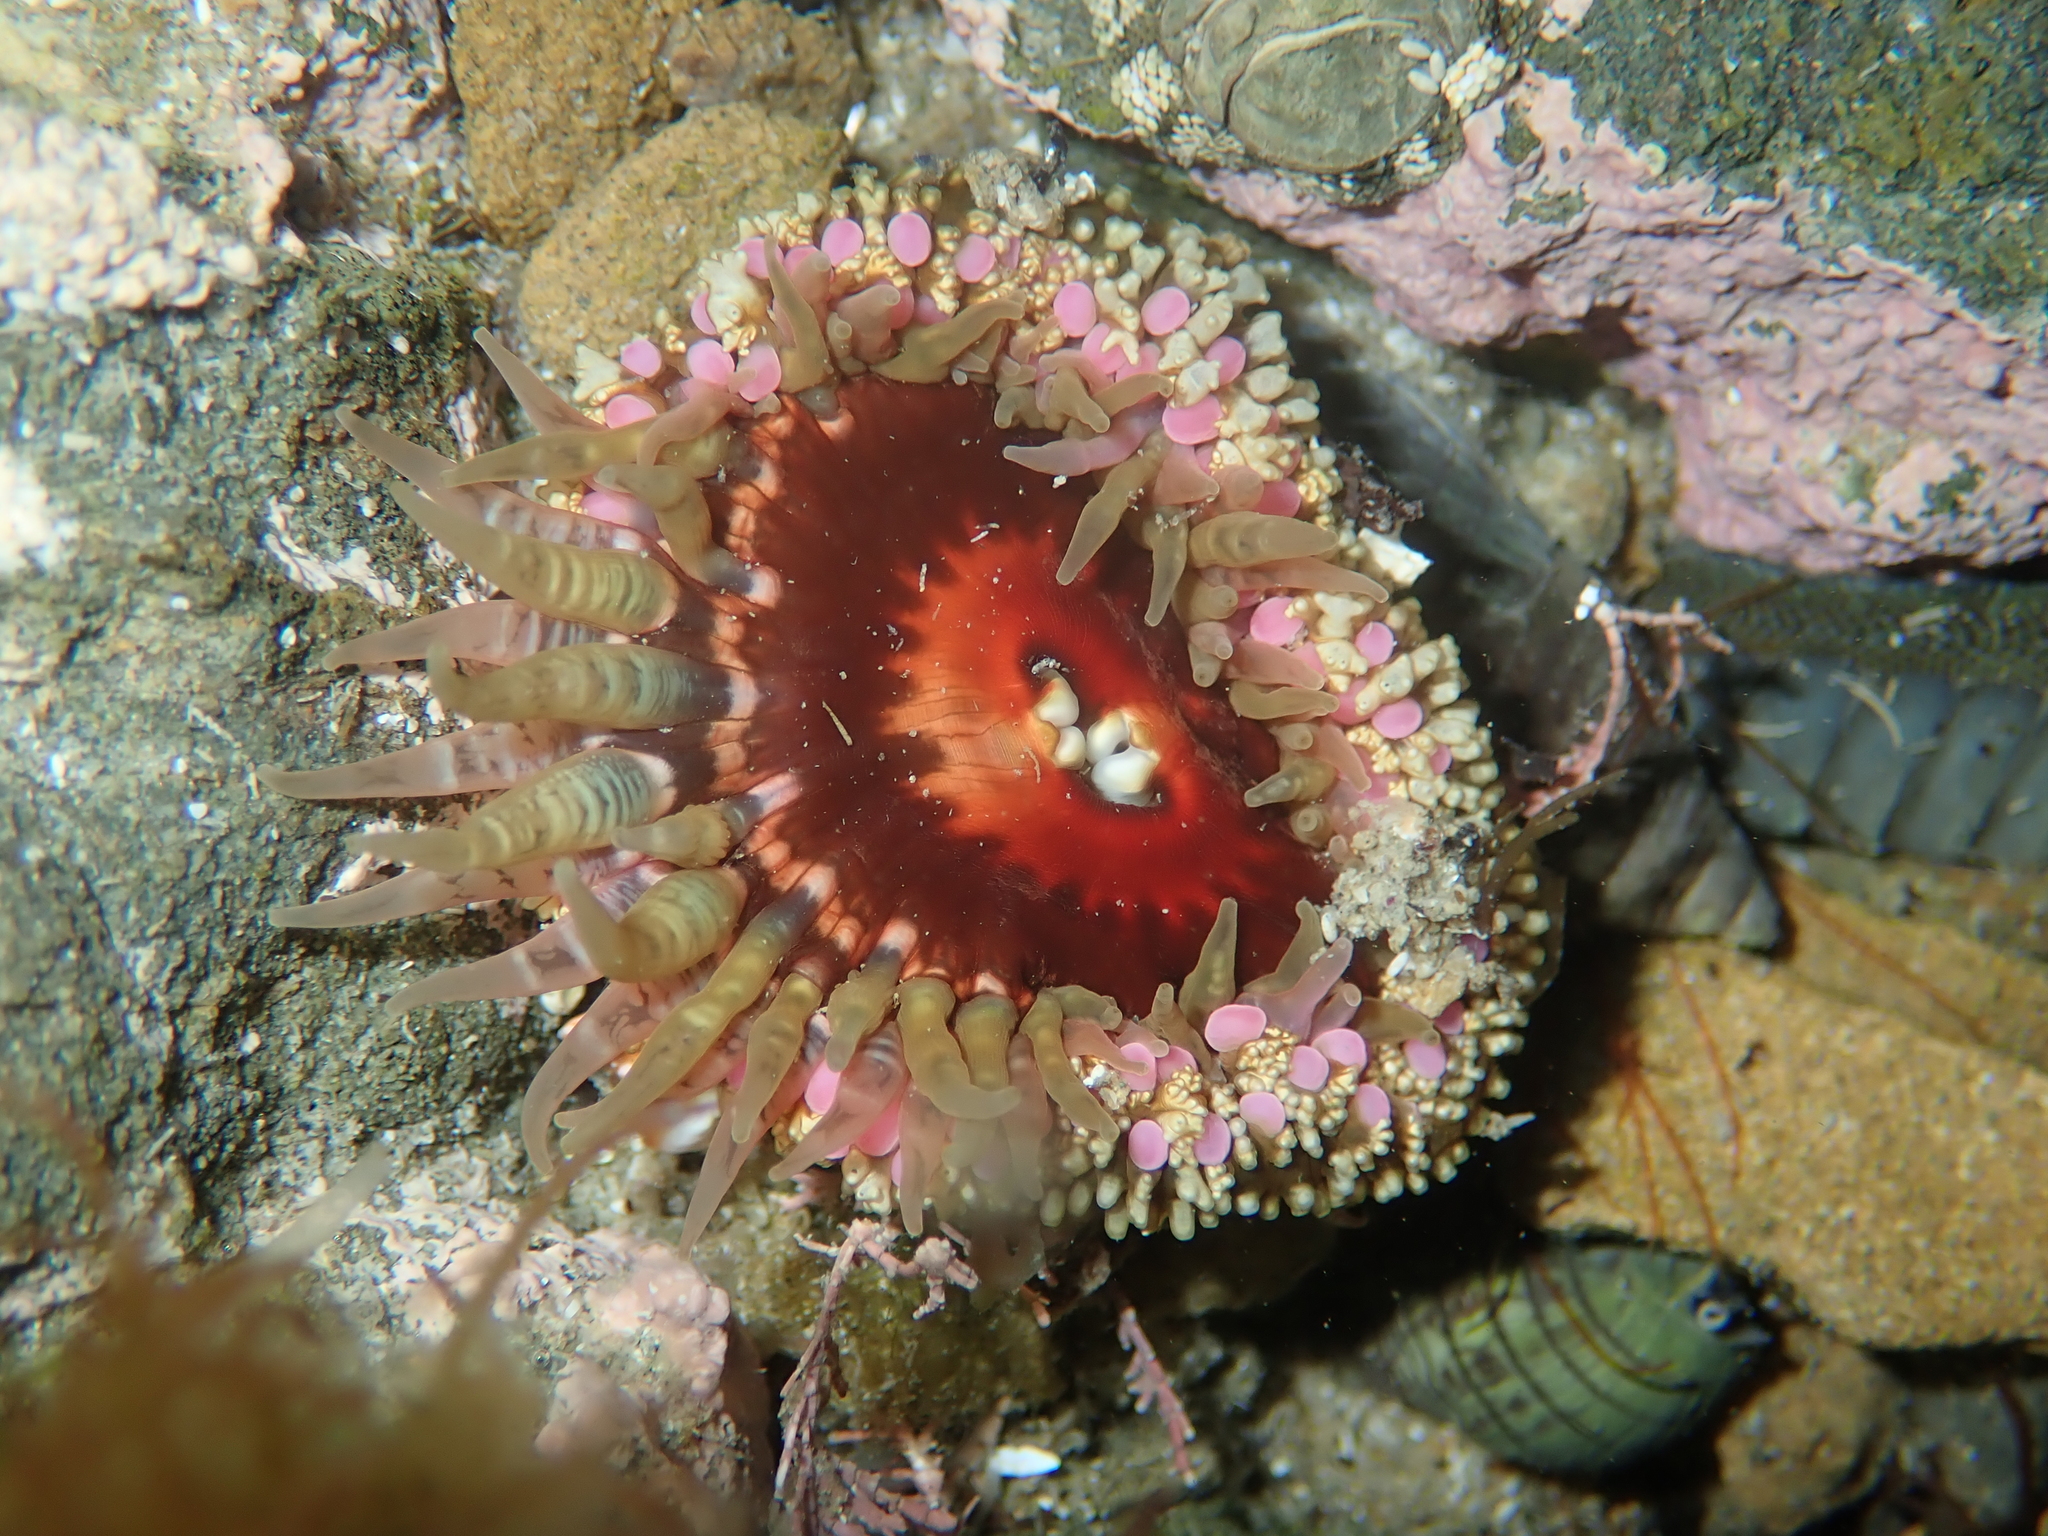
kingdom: Animalia
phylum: Cnidaria
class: Anthozoa
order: Actiniaria
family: Actiniidae
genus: Oulactis
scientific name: Oulactis muscosa
